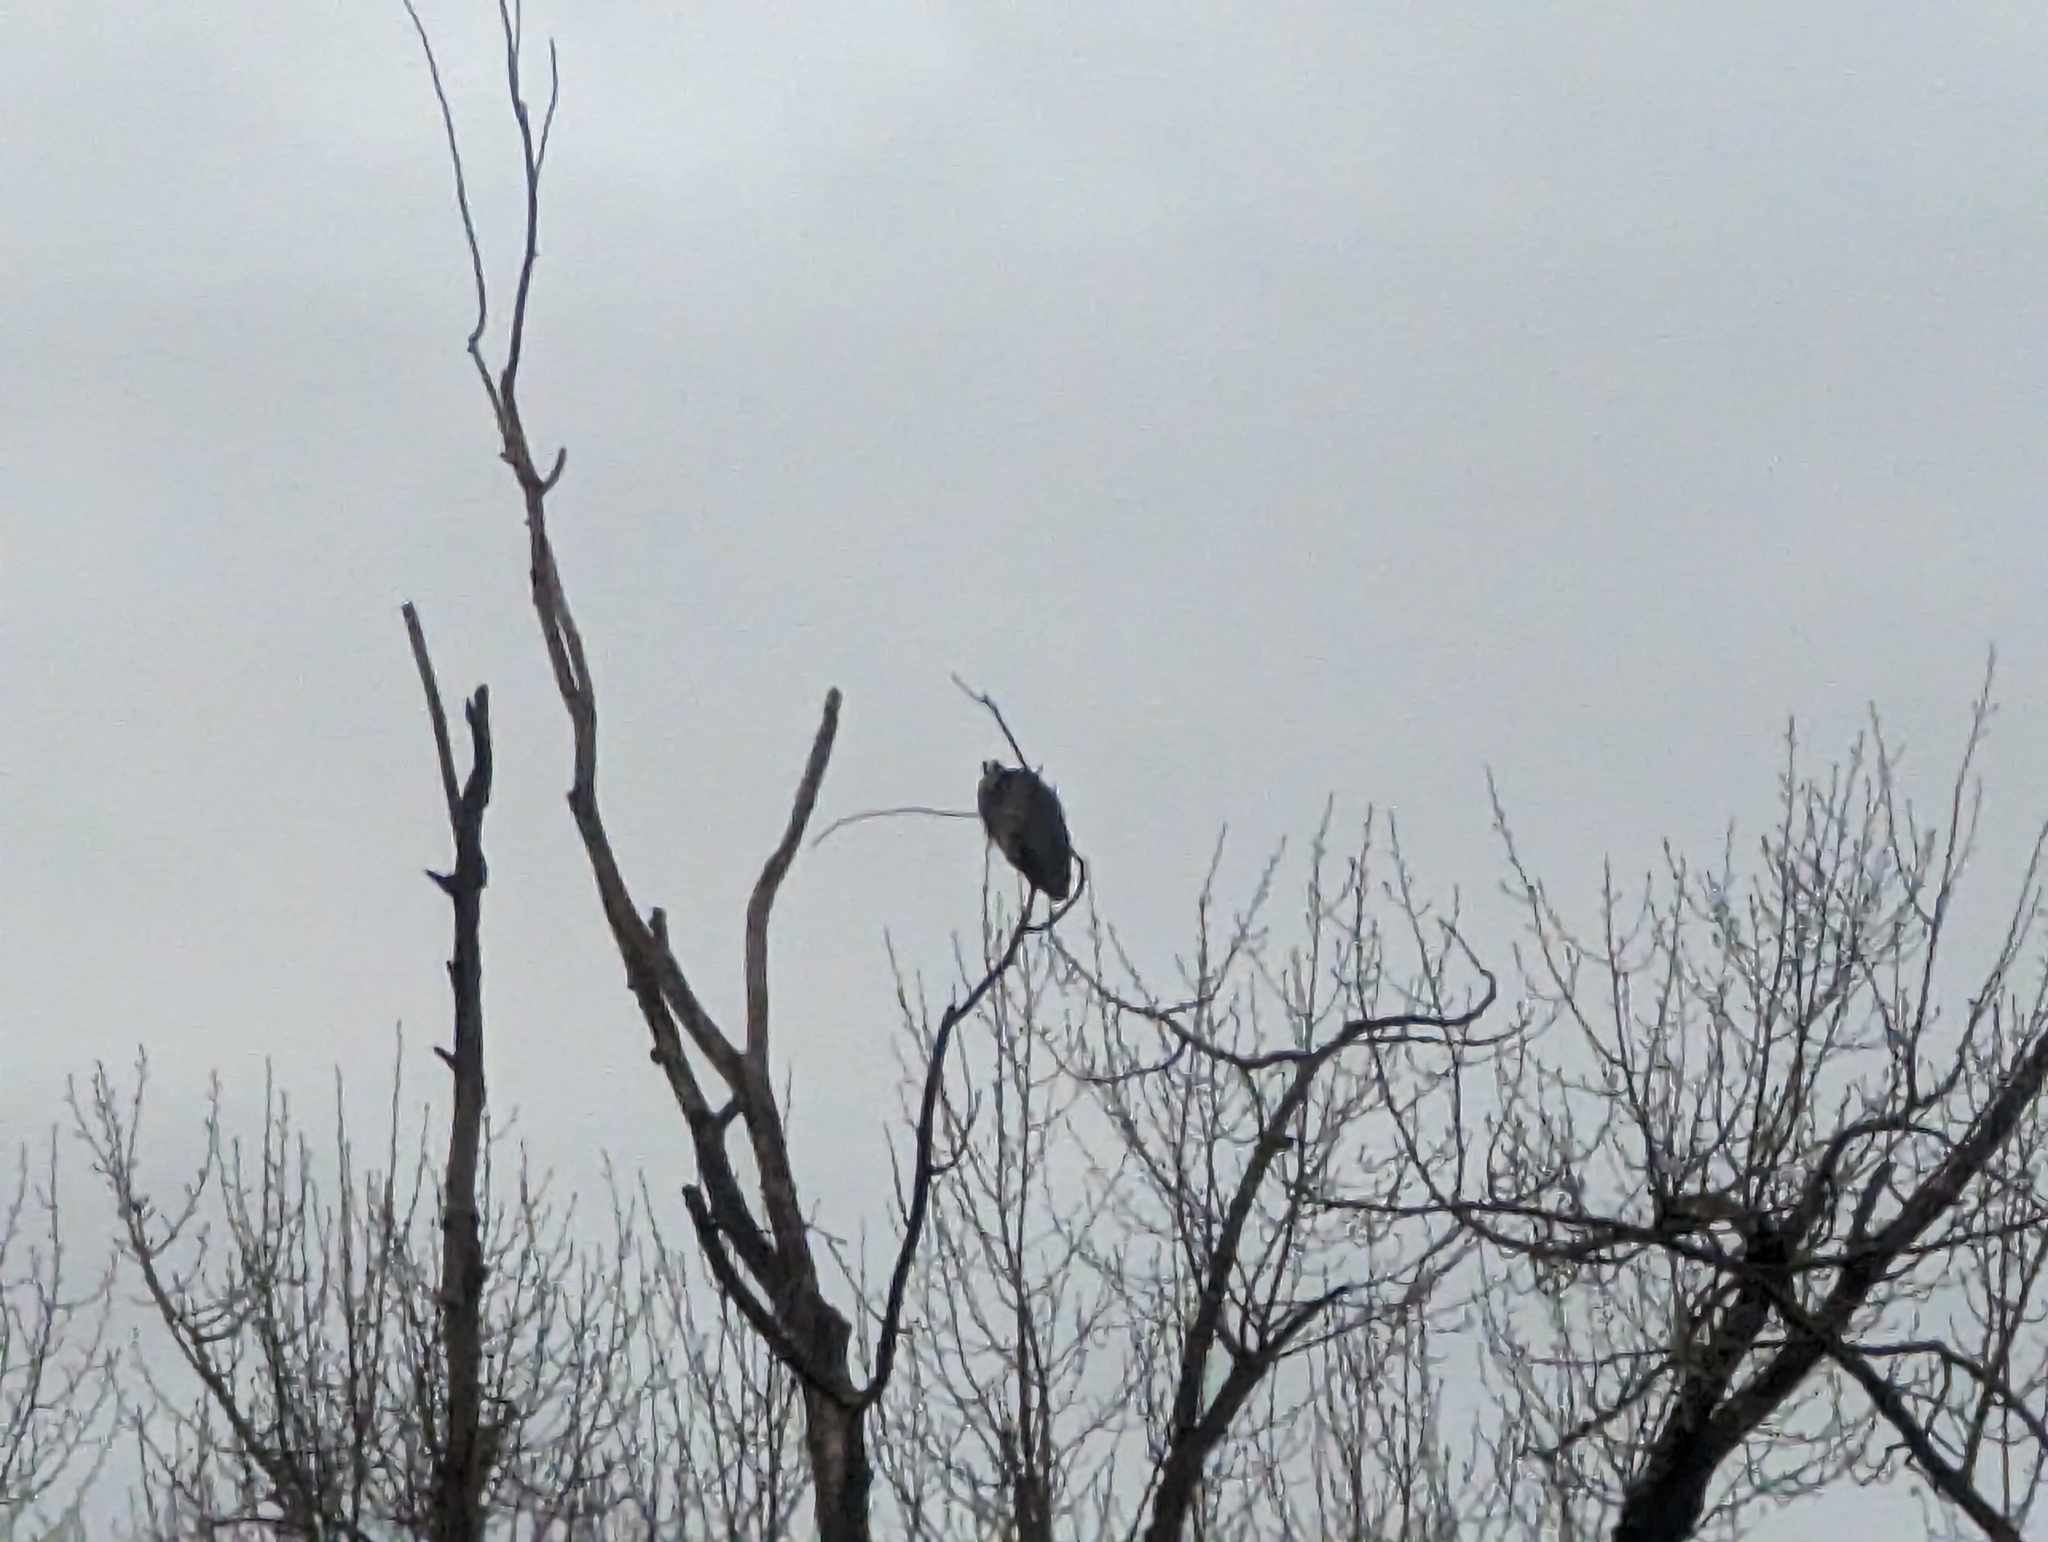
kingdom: Animalia
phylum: Chordata
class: Aves
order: Pelecaniformes
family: Ardeidae
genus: Ardea
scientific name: Ardea herodias
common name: Great blue heron
